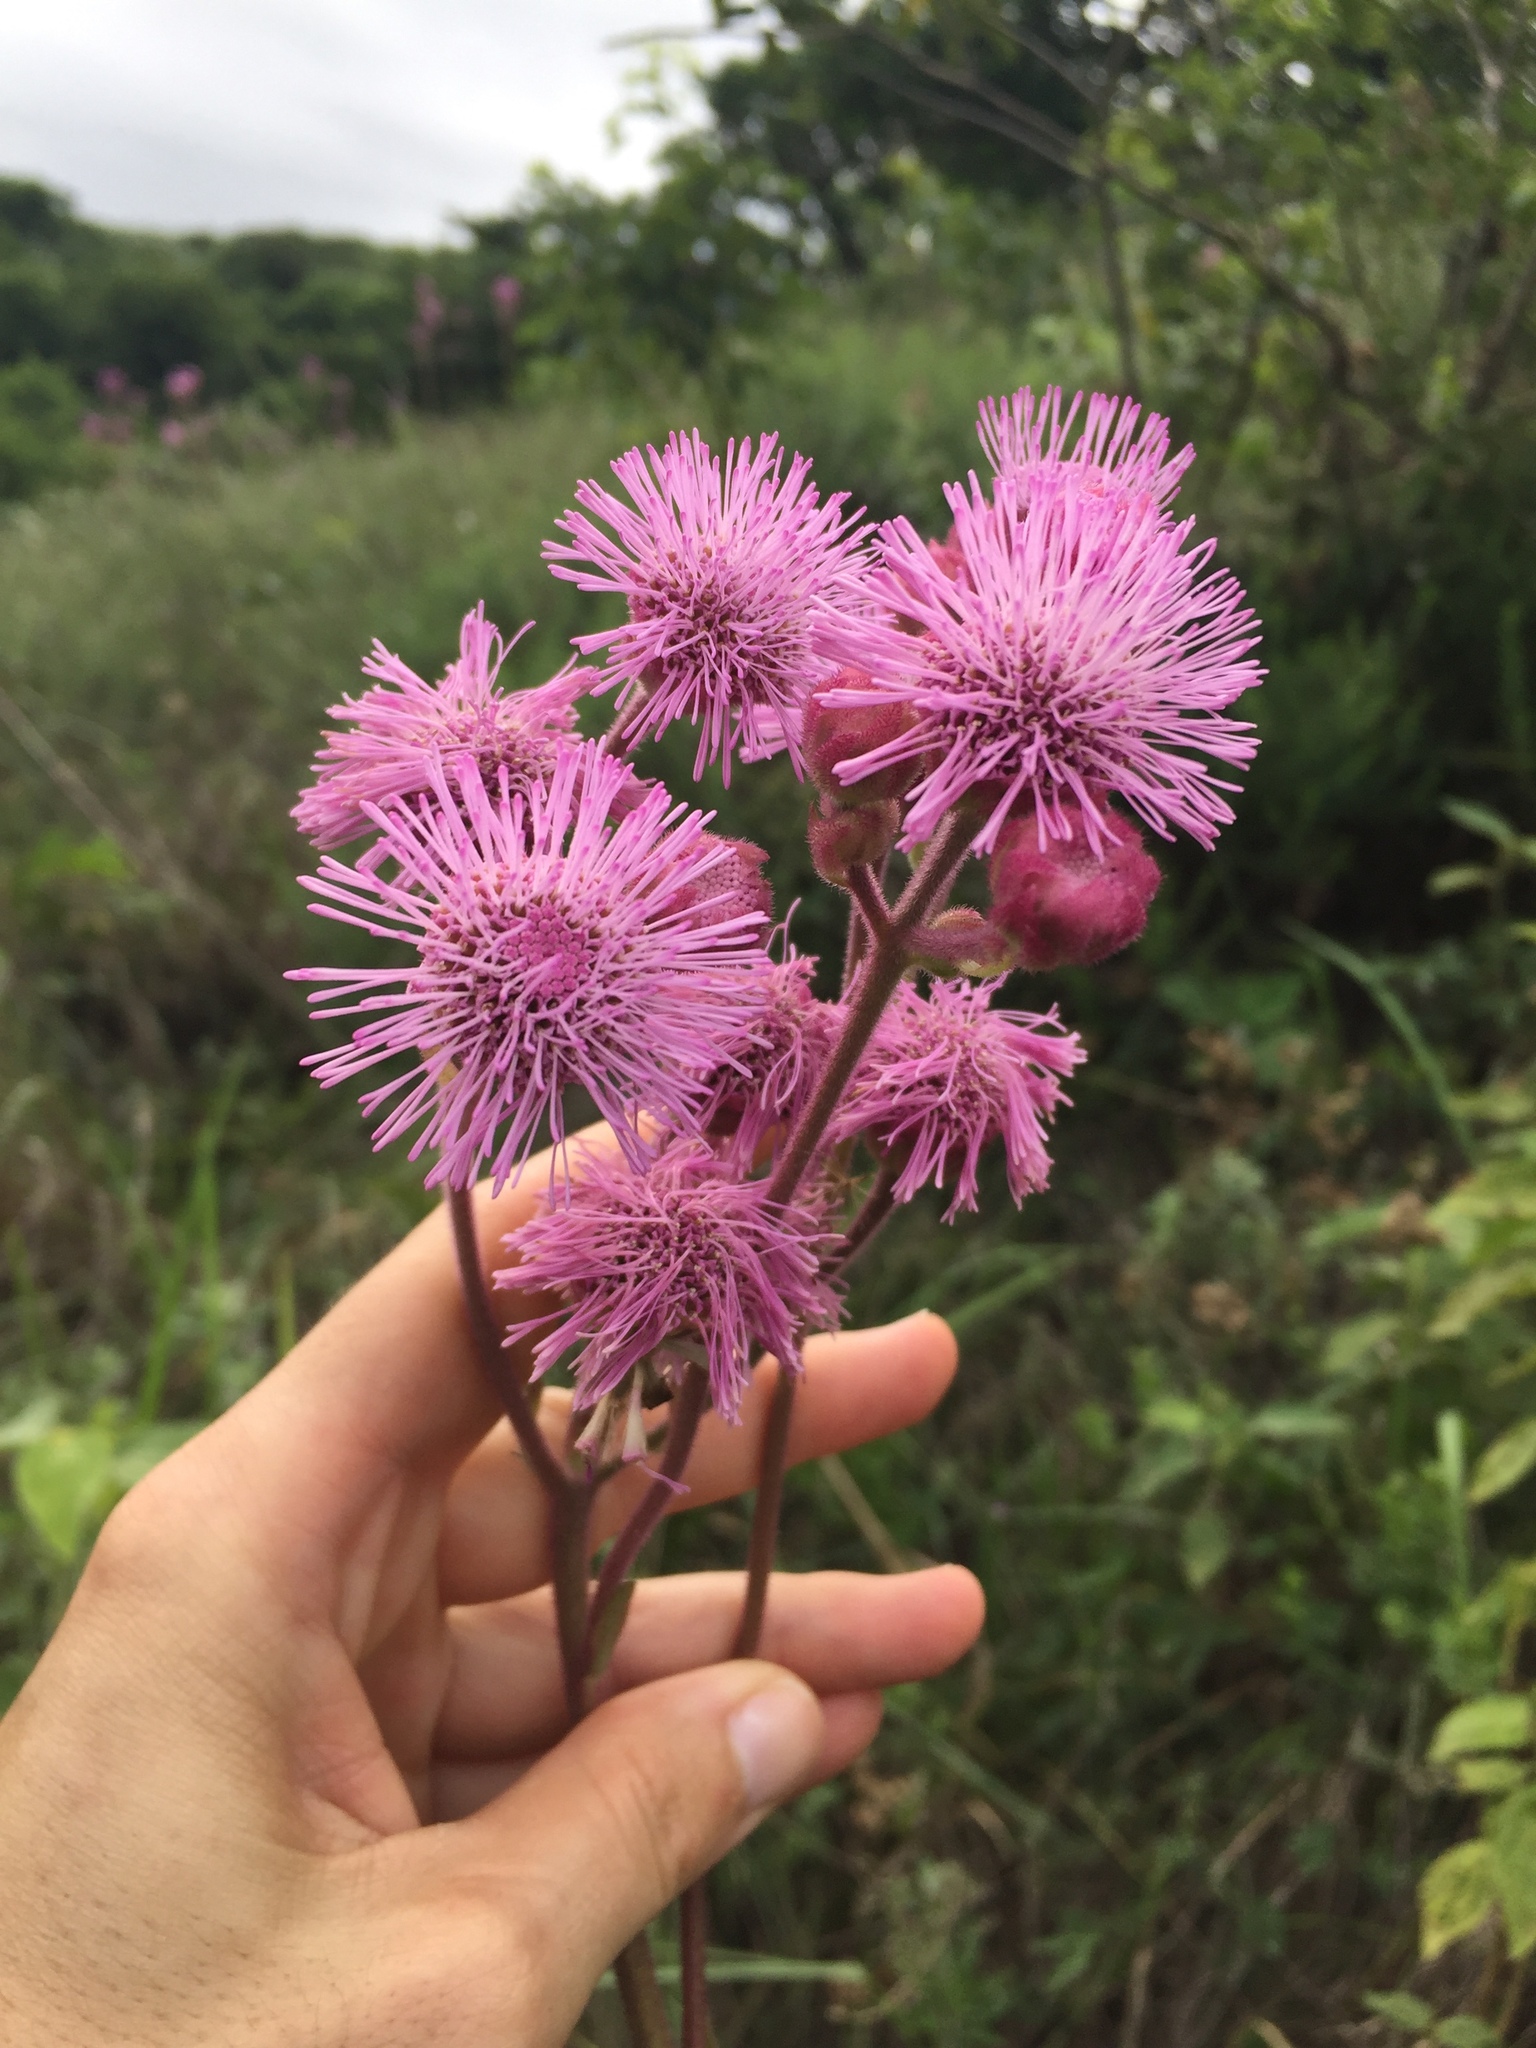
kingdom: Plantae
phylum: Tracheophyta
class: Magnoliopsida
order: Asterales
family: Asteraceae
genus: Campuloclinium
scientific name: Campuloclinium macrocephalum
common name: Pompomweed
